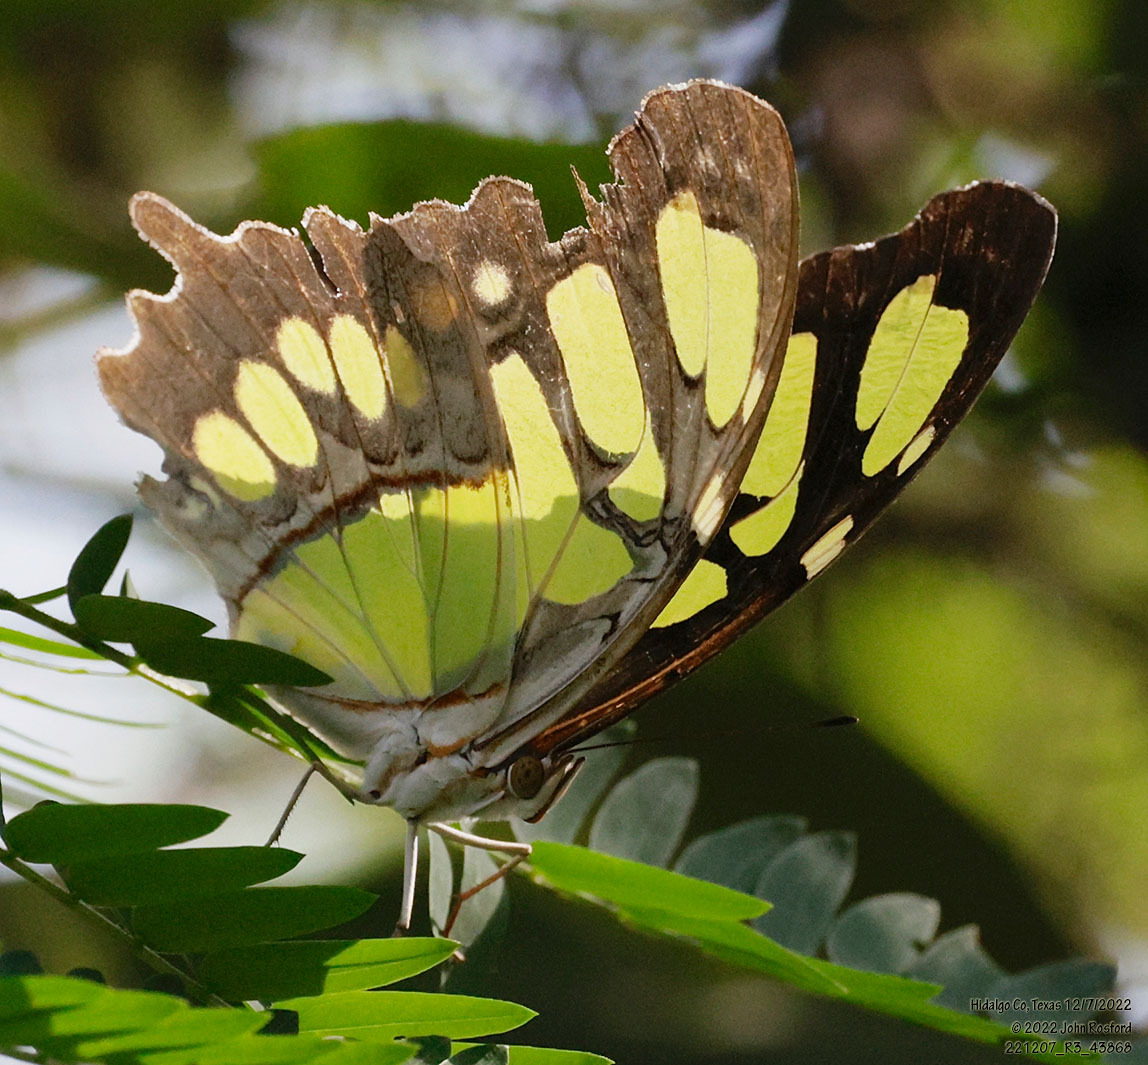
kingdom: Animalia
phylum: Arthropoda
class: Insecta
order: Lepidoptera
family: Nymphalidae
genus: Siproeta
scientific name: Siproeta stelenes
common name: Malachite
